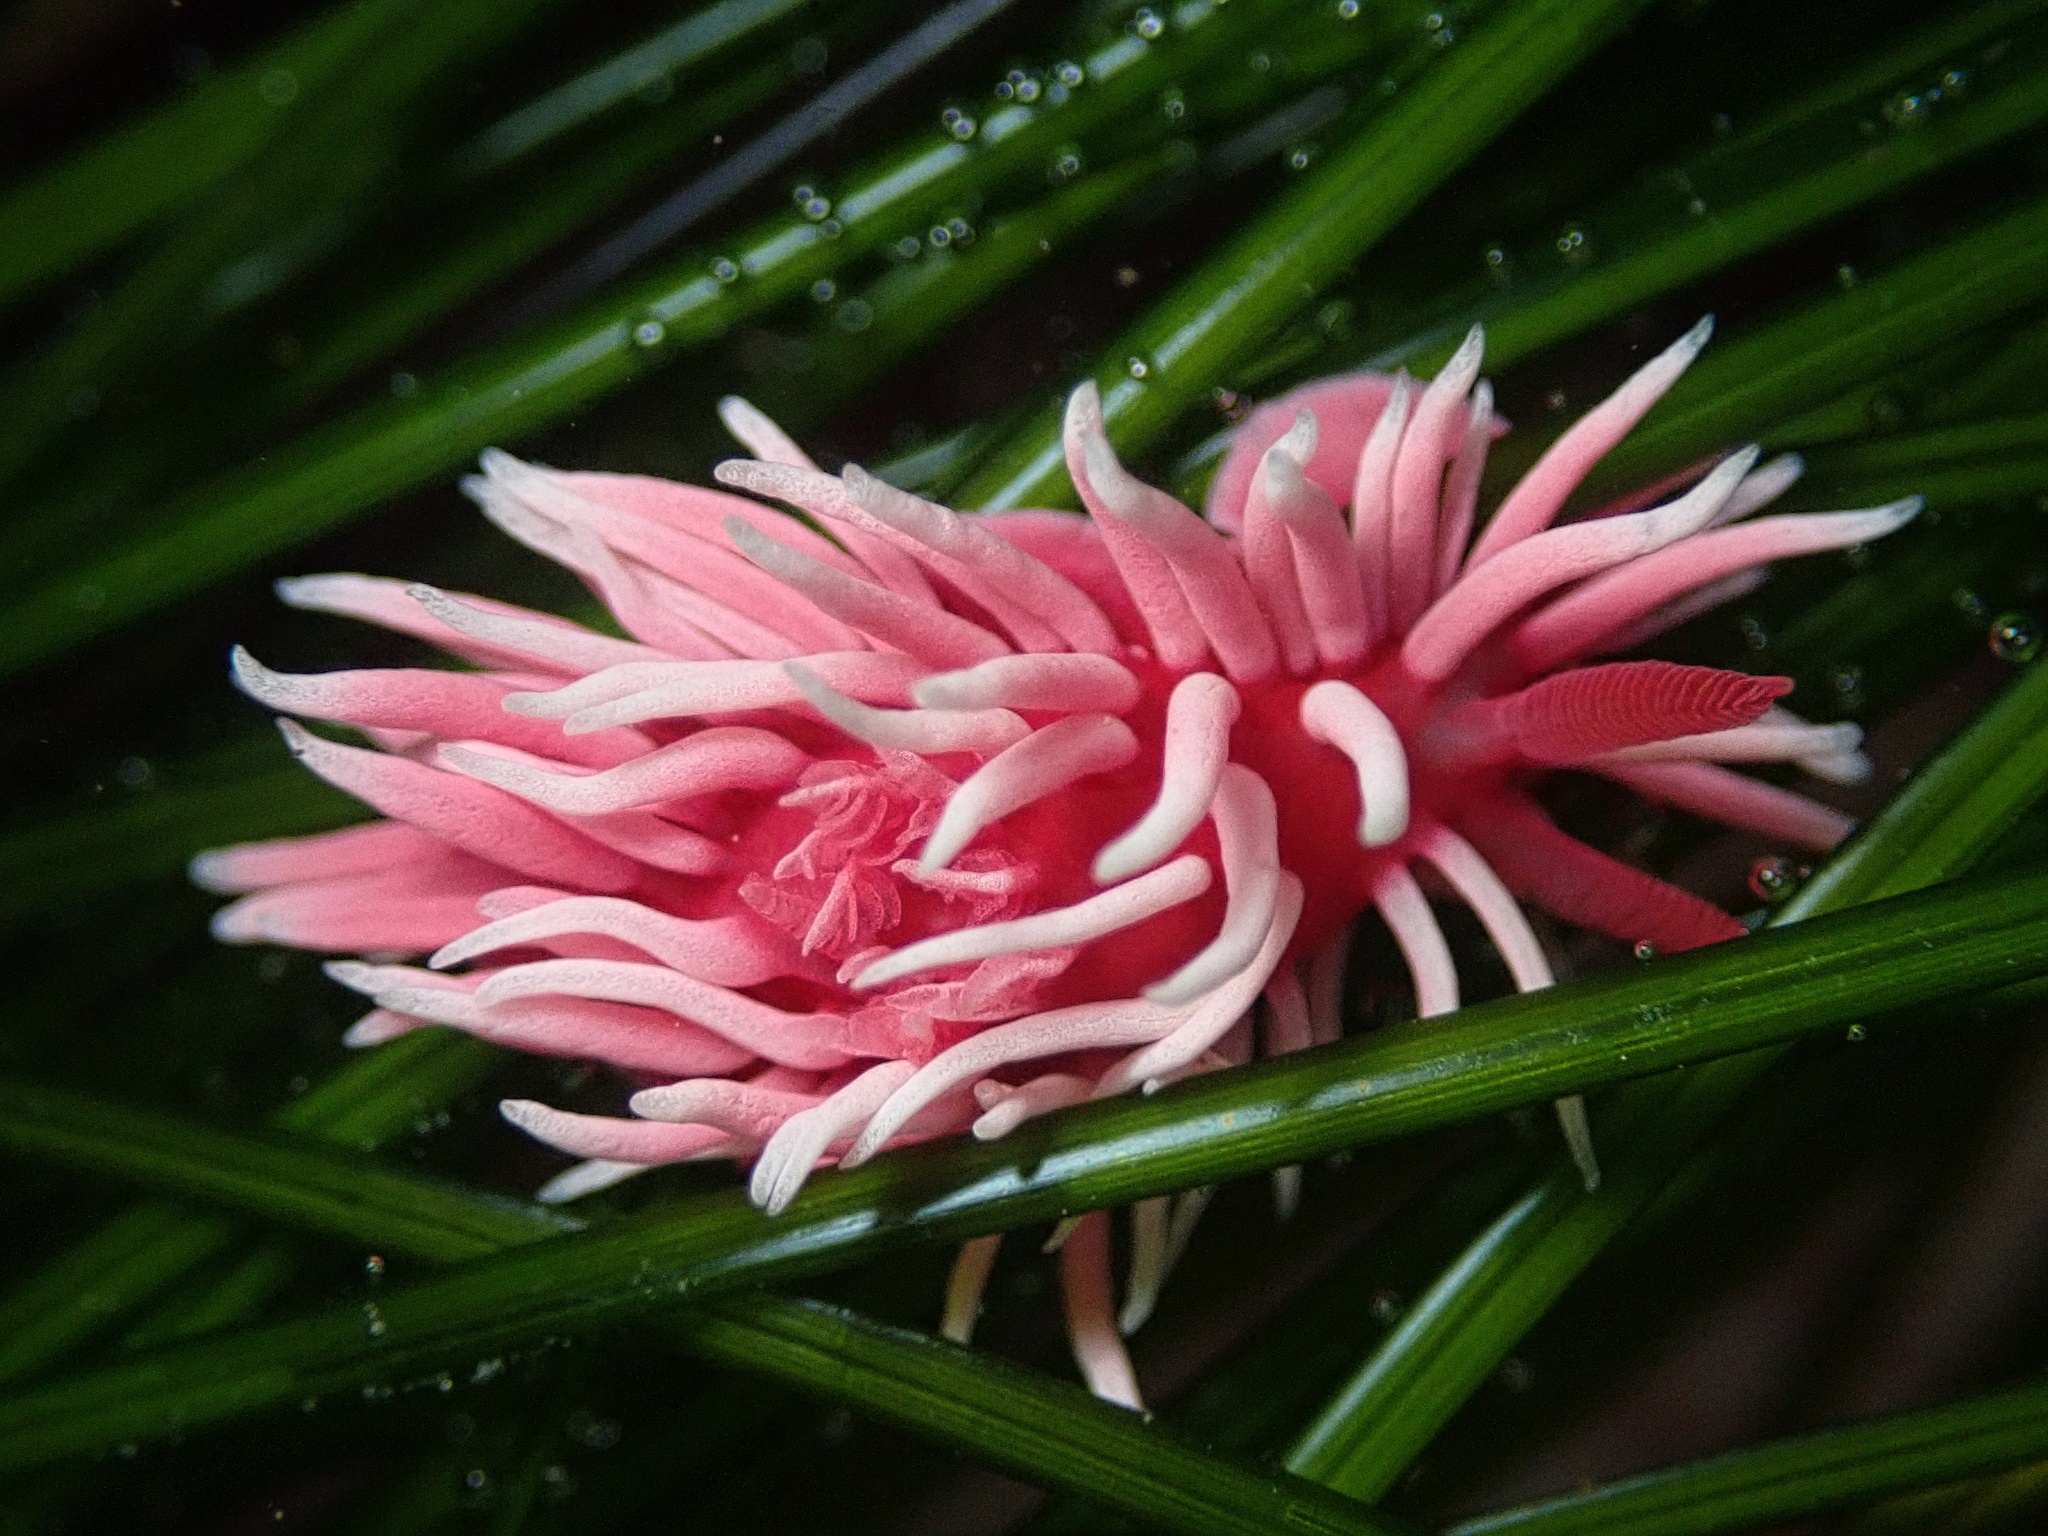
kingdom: Animalia
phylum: Mollusca
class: Gastropoda
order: Nudibranchia
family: Goniodorididae
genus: Okenia
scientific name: Okenia
